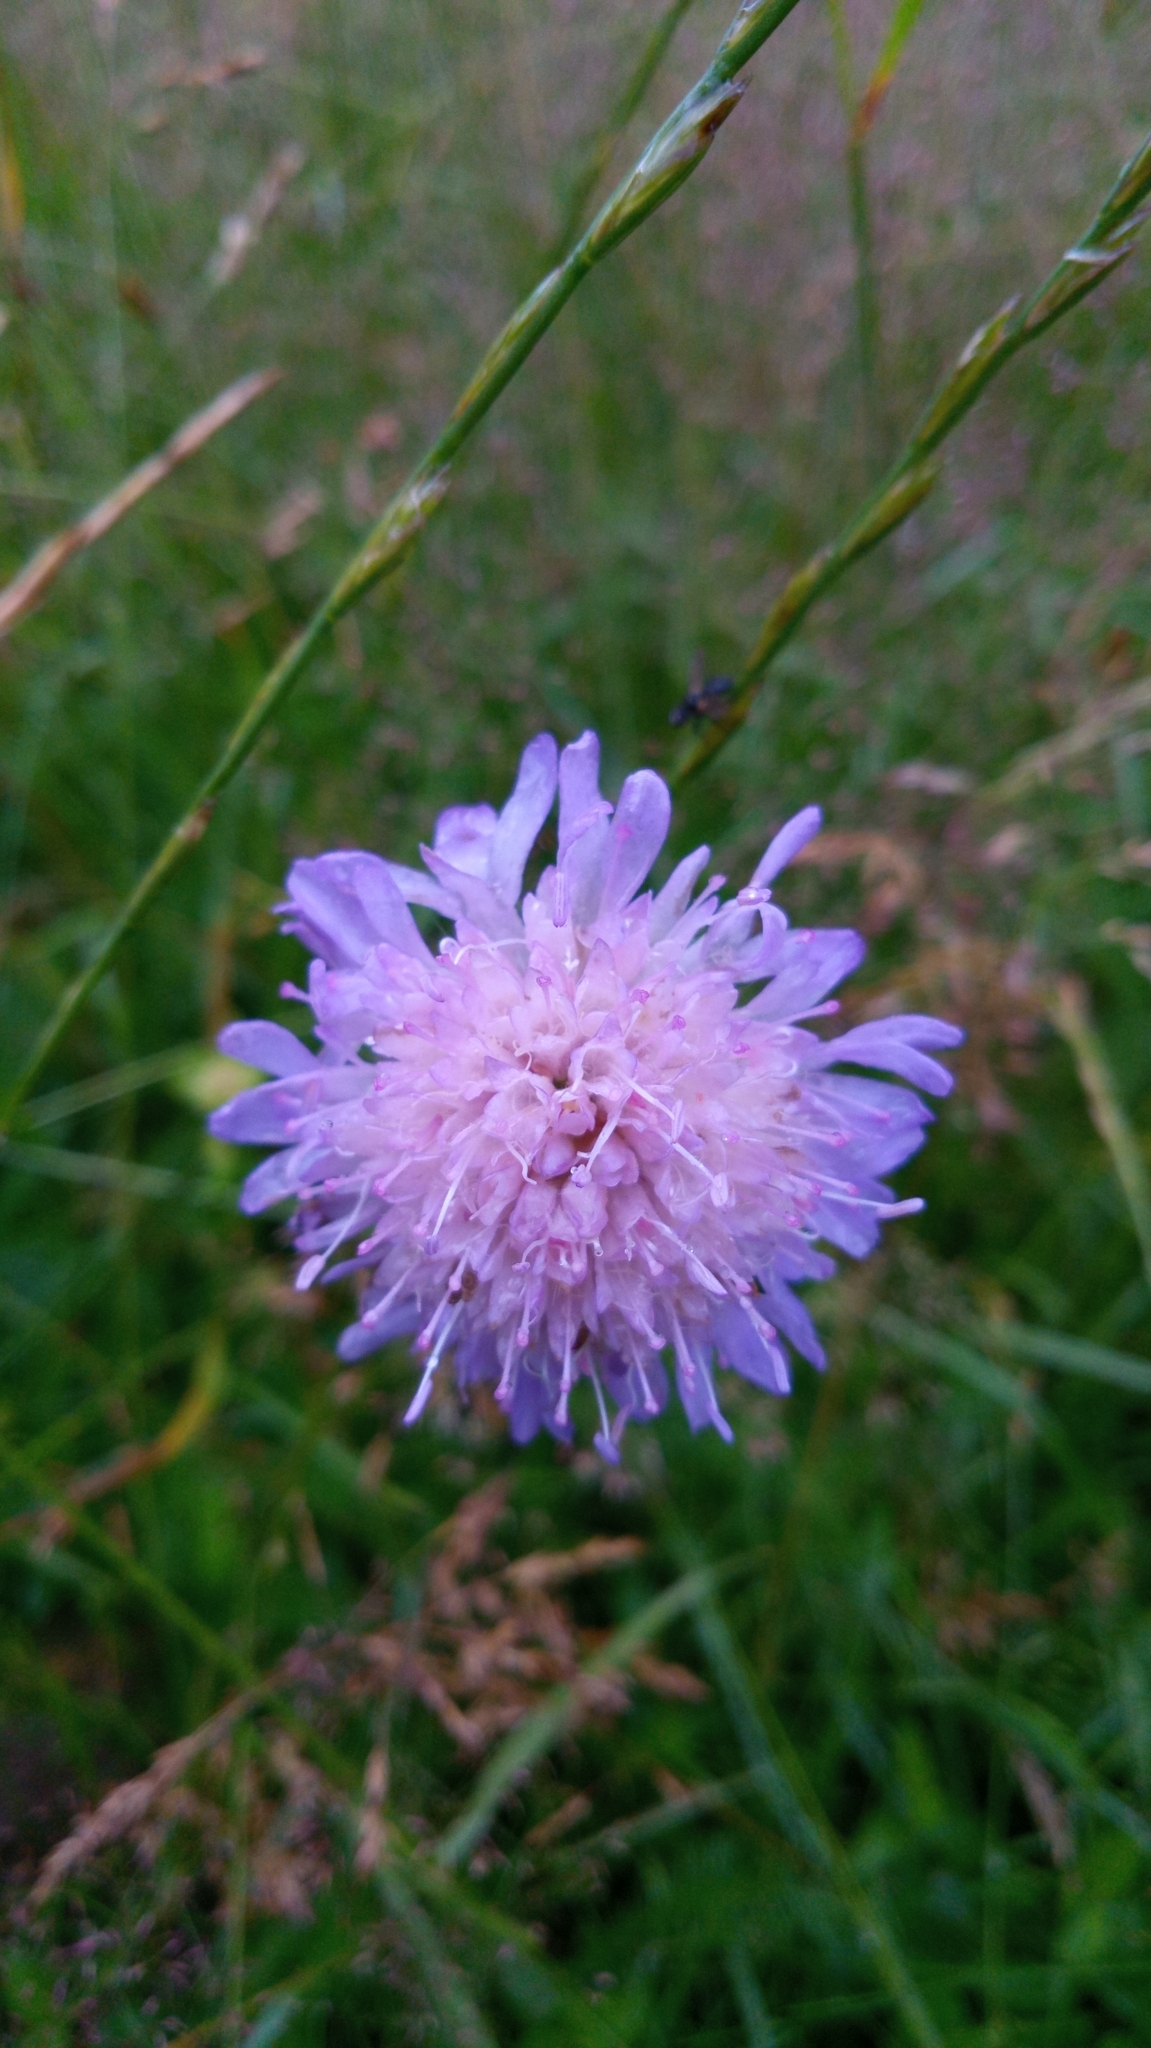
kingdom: Plantae
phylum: Tracheophyta
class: Magnoliopsida
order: Dipsacales
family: Caprifoliaceae
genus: Knautia
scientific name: Knautia arvensis
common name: Field scabiosa
